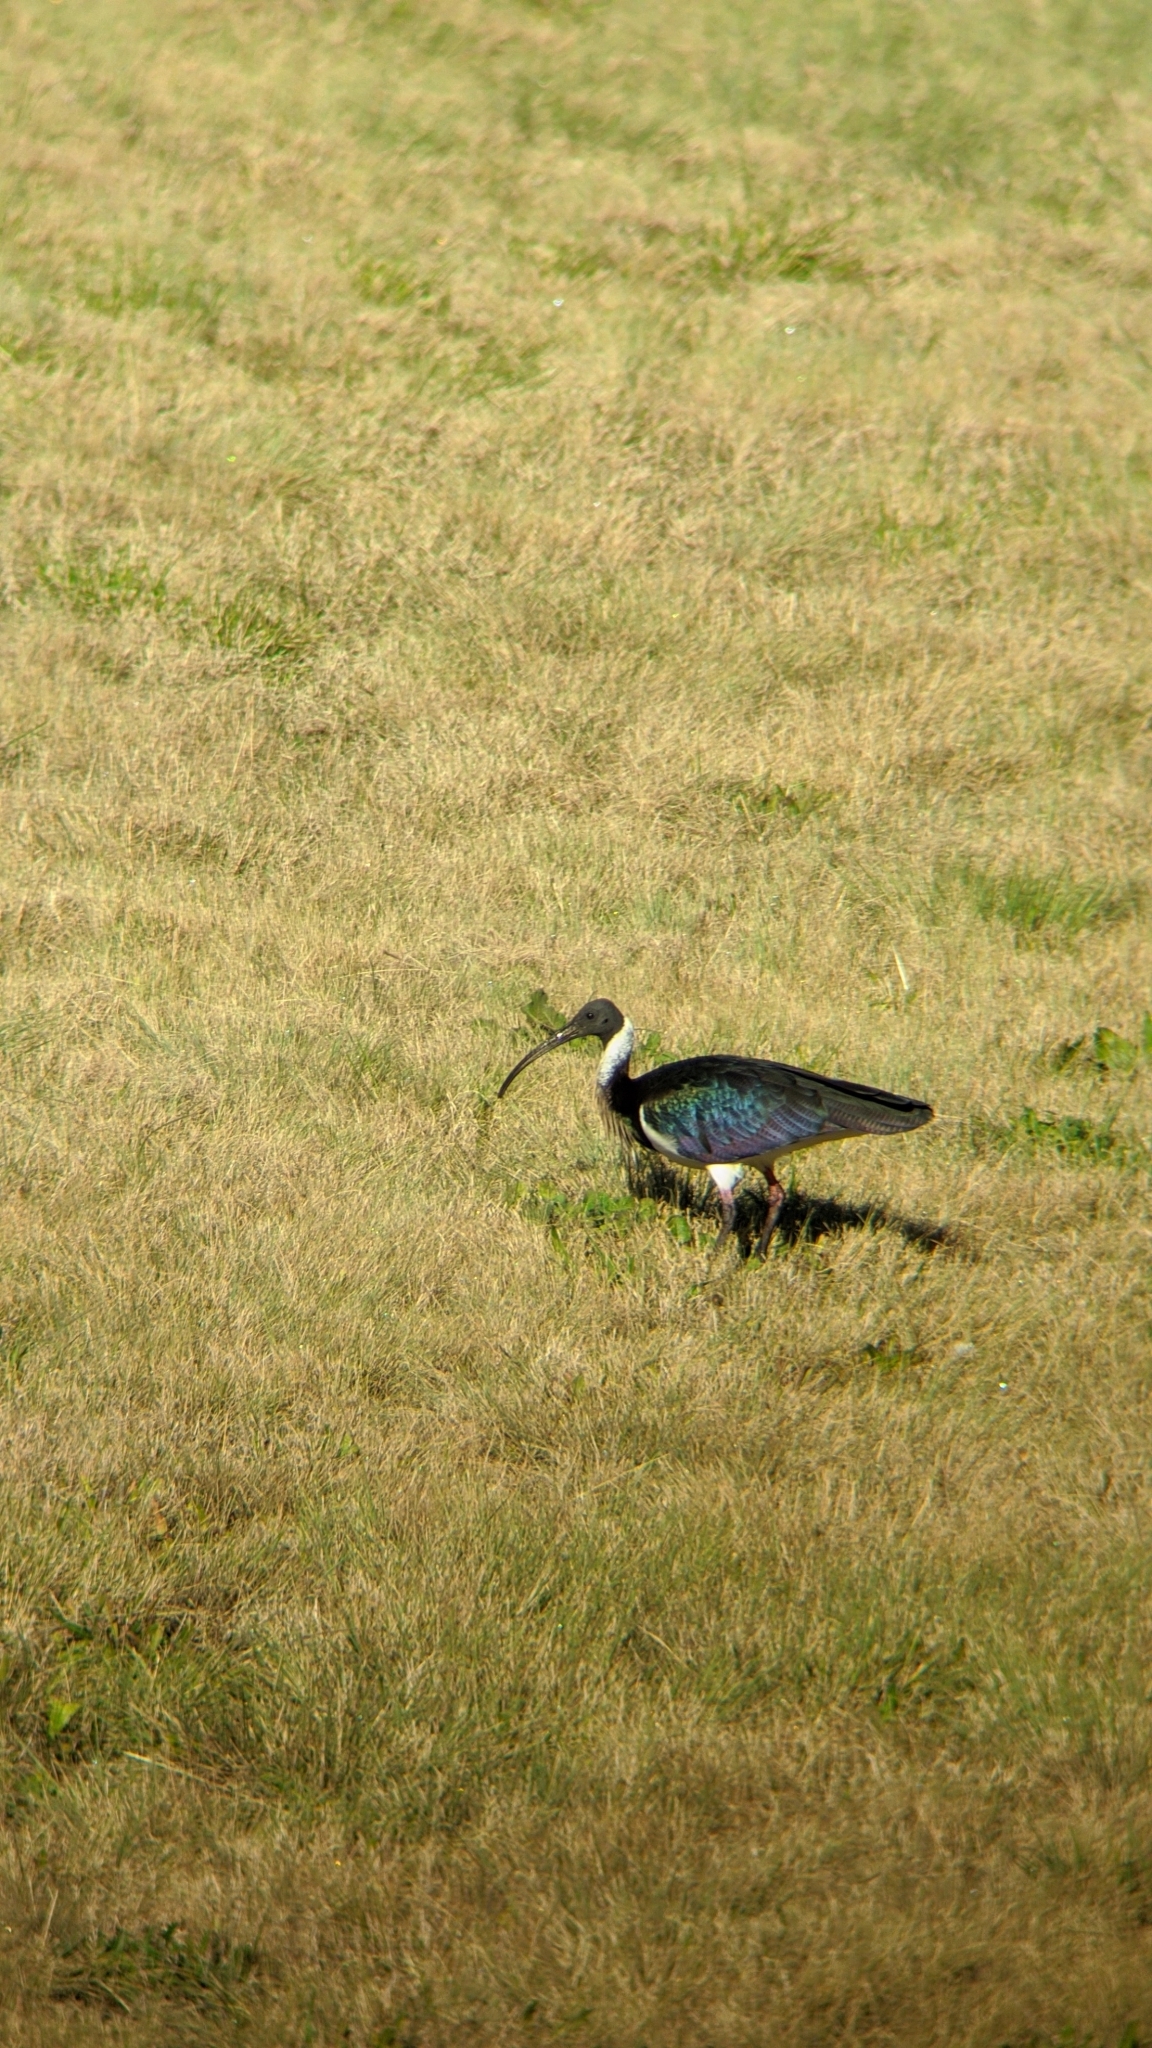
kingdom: Animalia
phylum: Chordata
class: Aves
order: Pelecaniformes
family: Threskiornithidae
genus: Threskiornis
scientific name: Threskiornis spinicollis
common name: Straw-necked ibis
